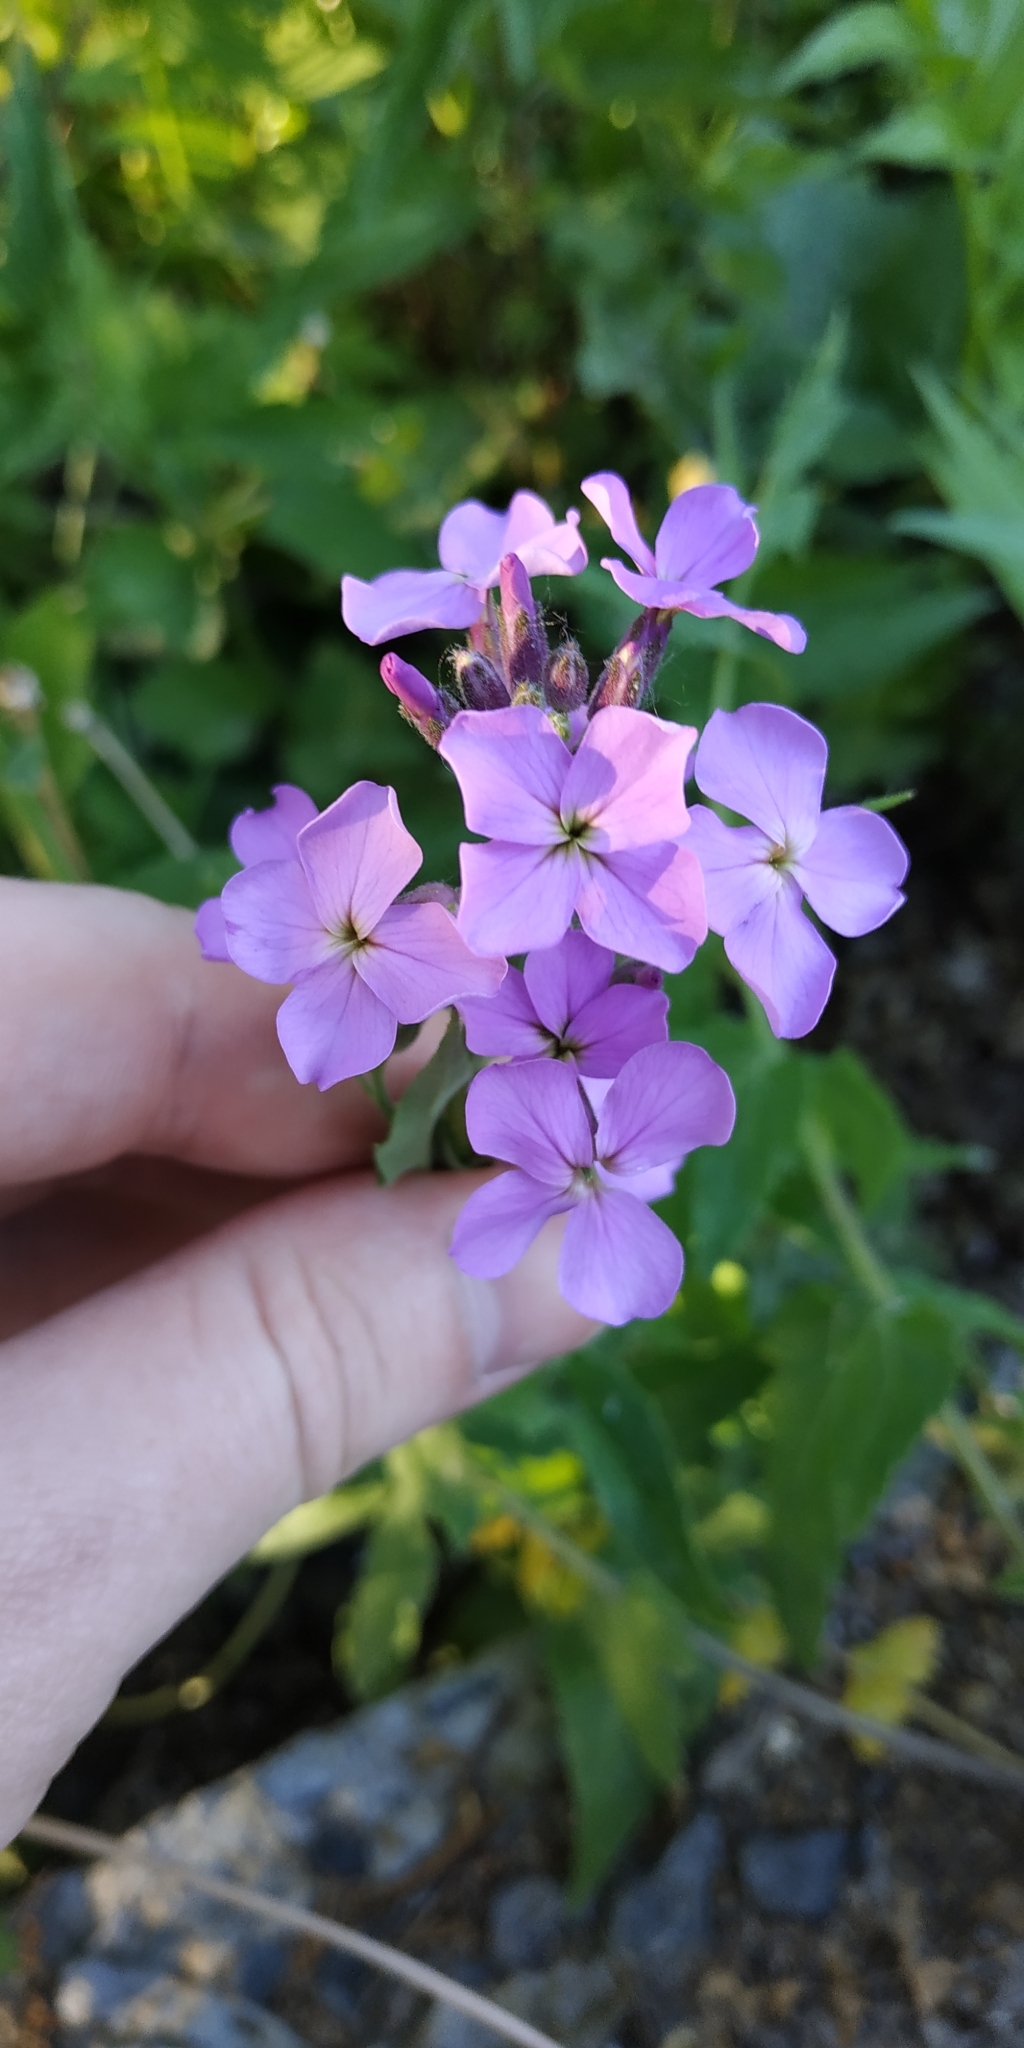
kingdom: Plantae
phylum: Tracheophyta
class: Magnoliopsida
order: Brassicales
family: Brassicaceae
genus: Hesperis
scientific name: Hesperis matronalis
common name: Dame's-violet
